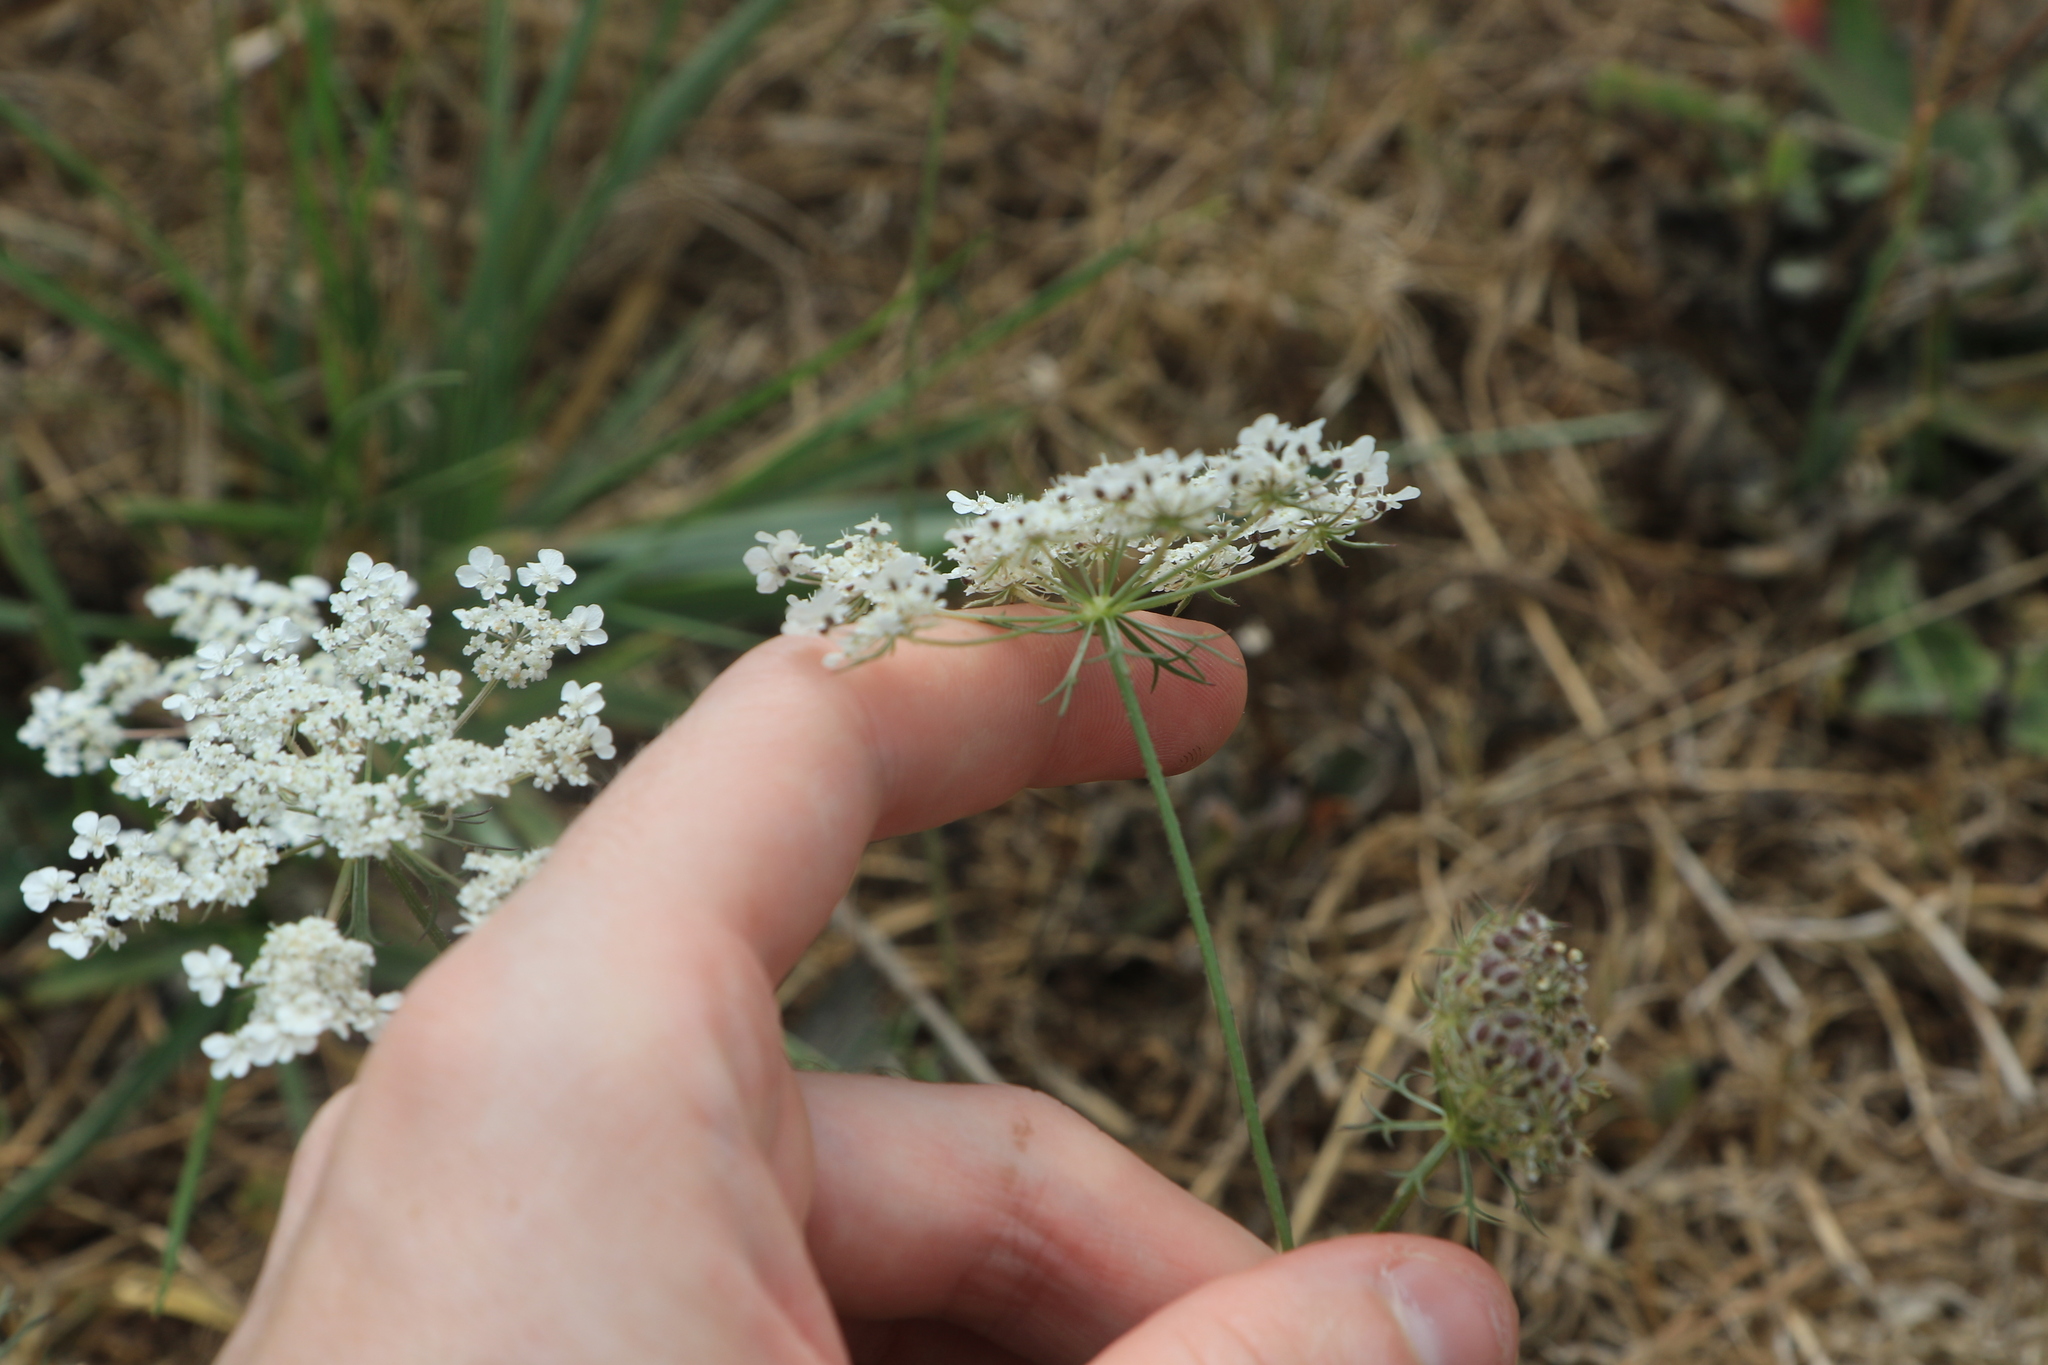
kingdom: Plantae
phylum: Tracheophyta
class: Magnoliopsida
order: Apiales
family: Apiaceae
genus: Daucus
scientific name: Daucus carota
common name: Wild carrot
